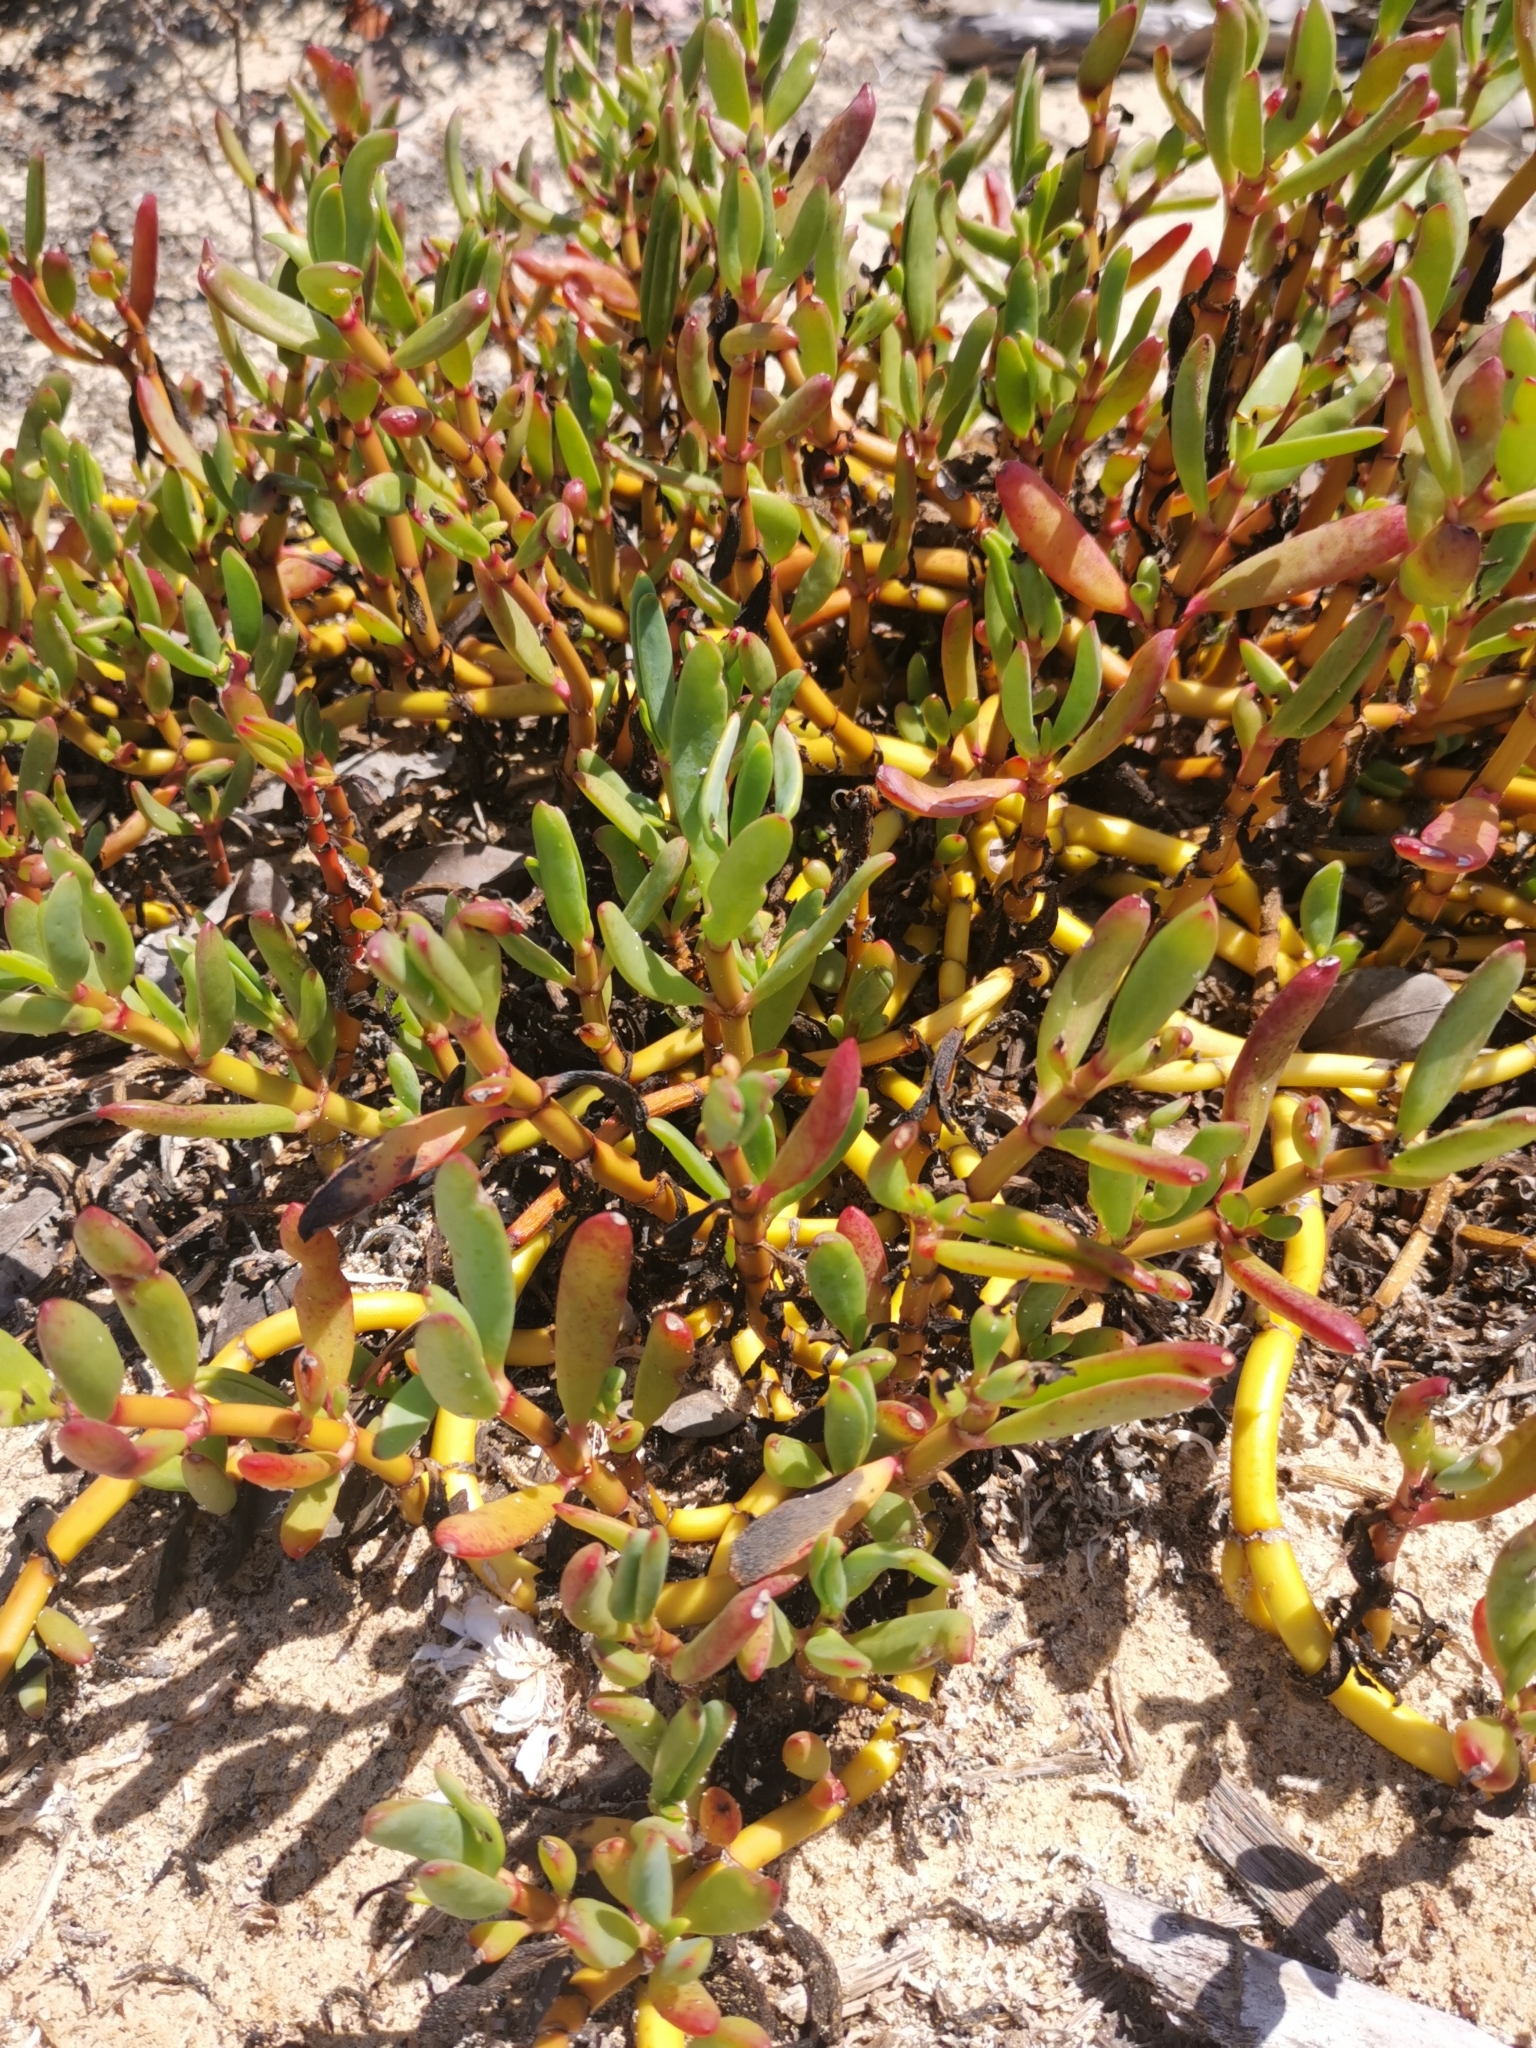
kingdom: Plantae
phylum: Tracheophyta
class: Magnoliopsida
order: Caryophyllales
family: Aizoaceae
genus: Sesuvium
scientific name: Sesuvium portulacastrum
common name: Sea-purslane
